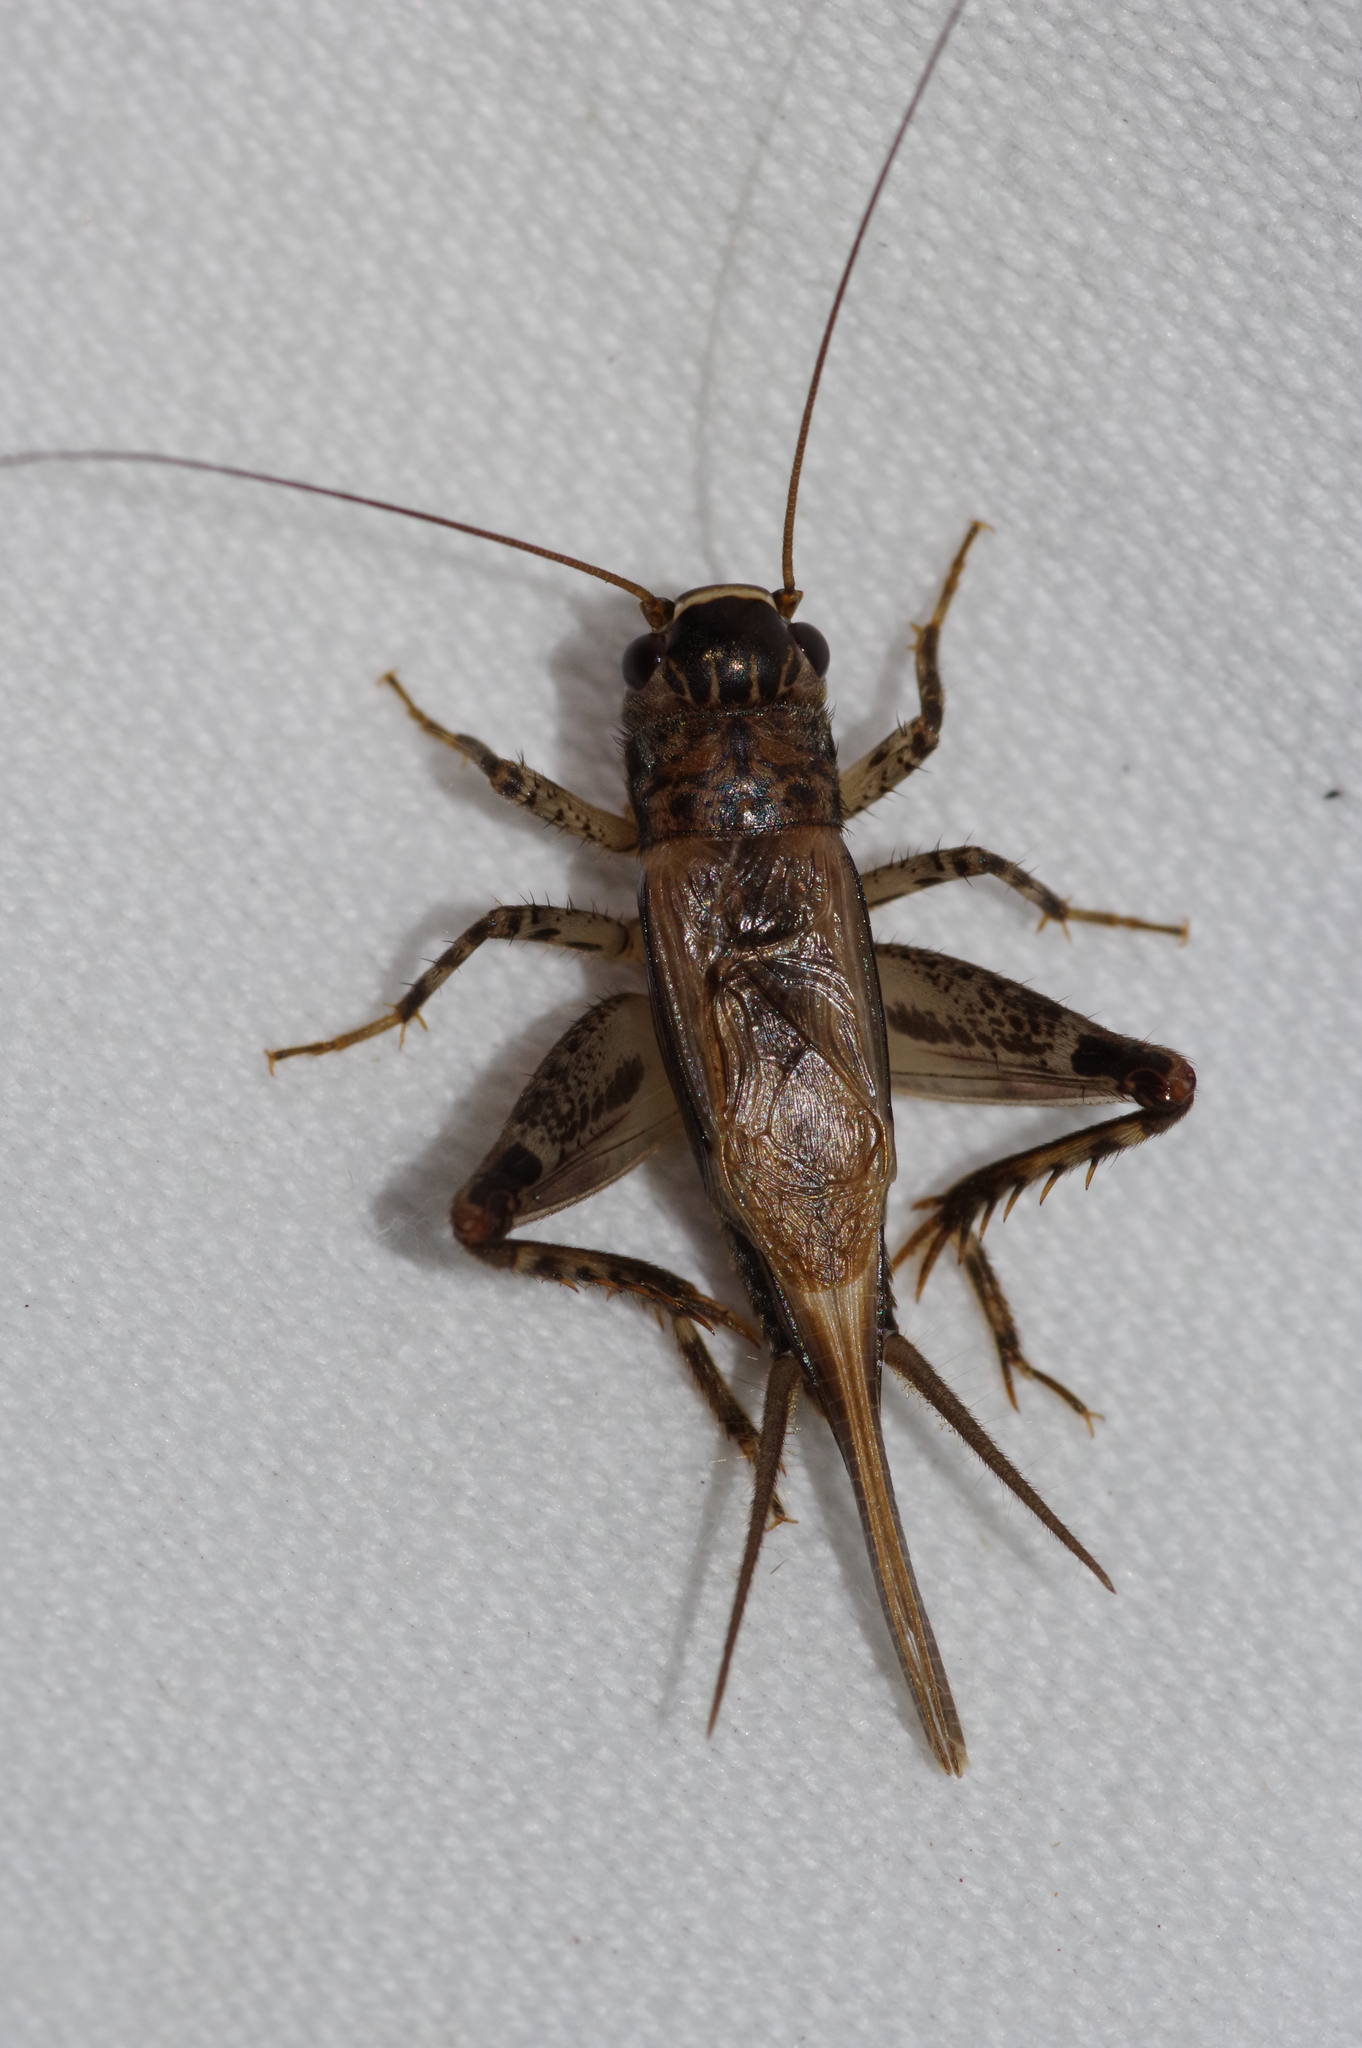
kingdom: Animalia
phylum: Arthropoda
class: Insecta
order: Orthoptera
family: Gryllidae
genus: Loxoblemmus
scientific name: Loxoblemmus equestris
